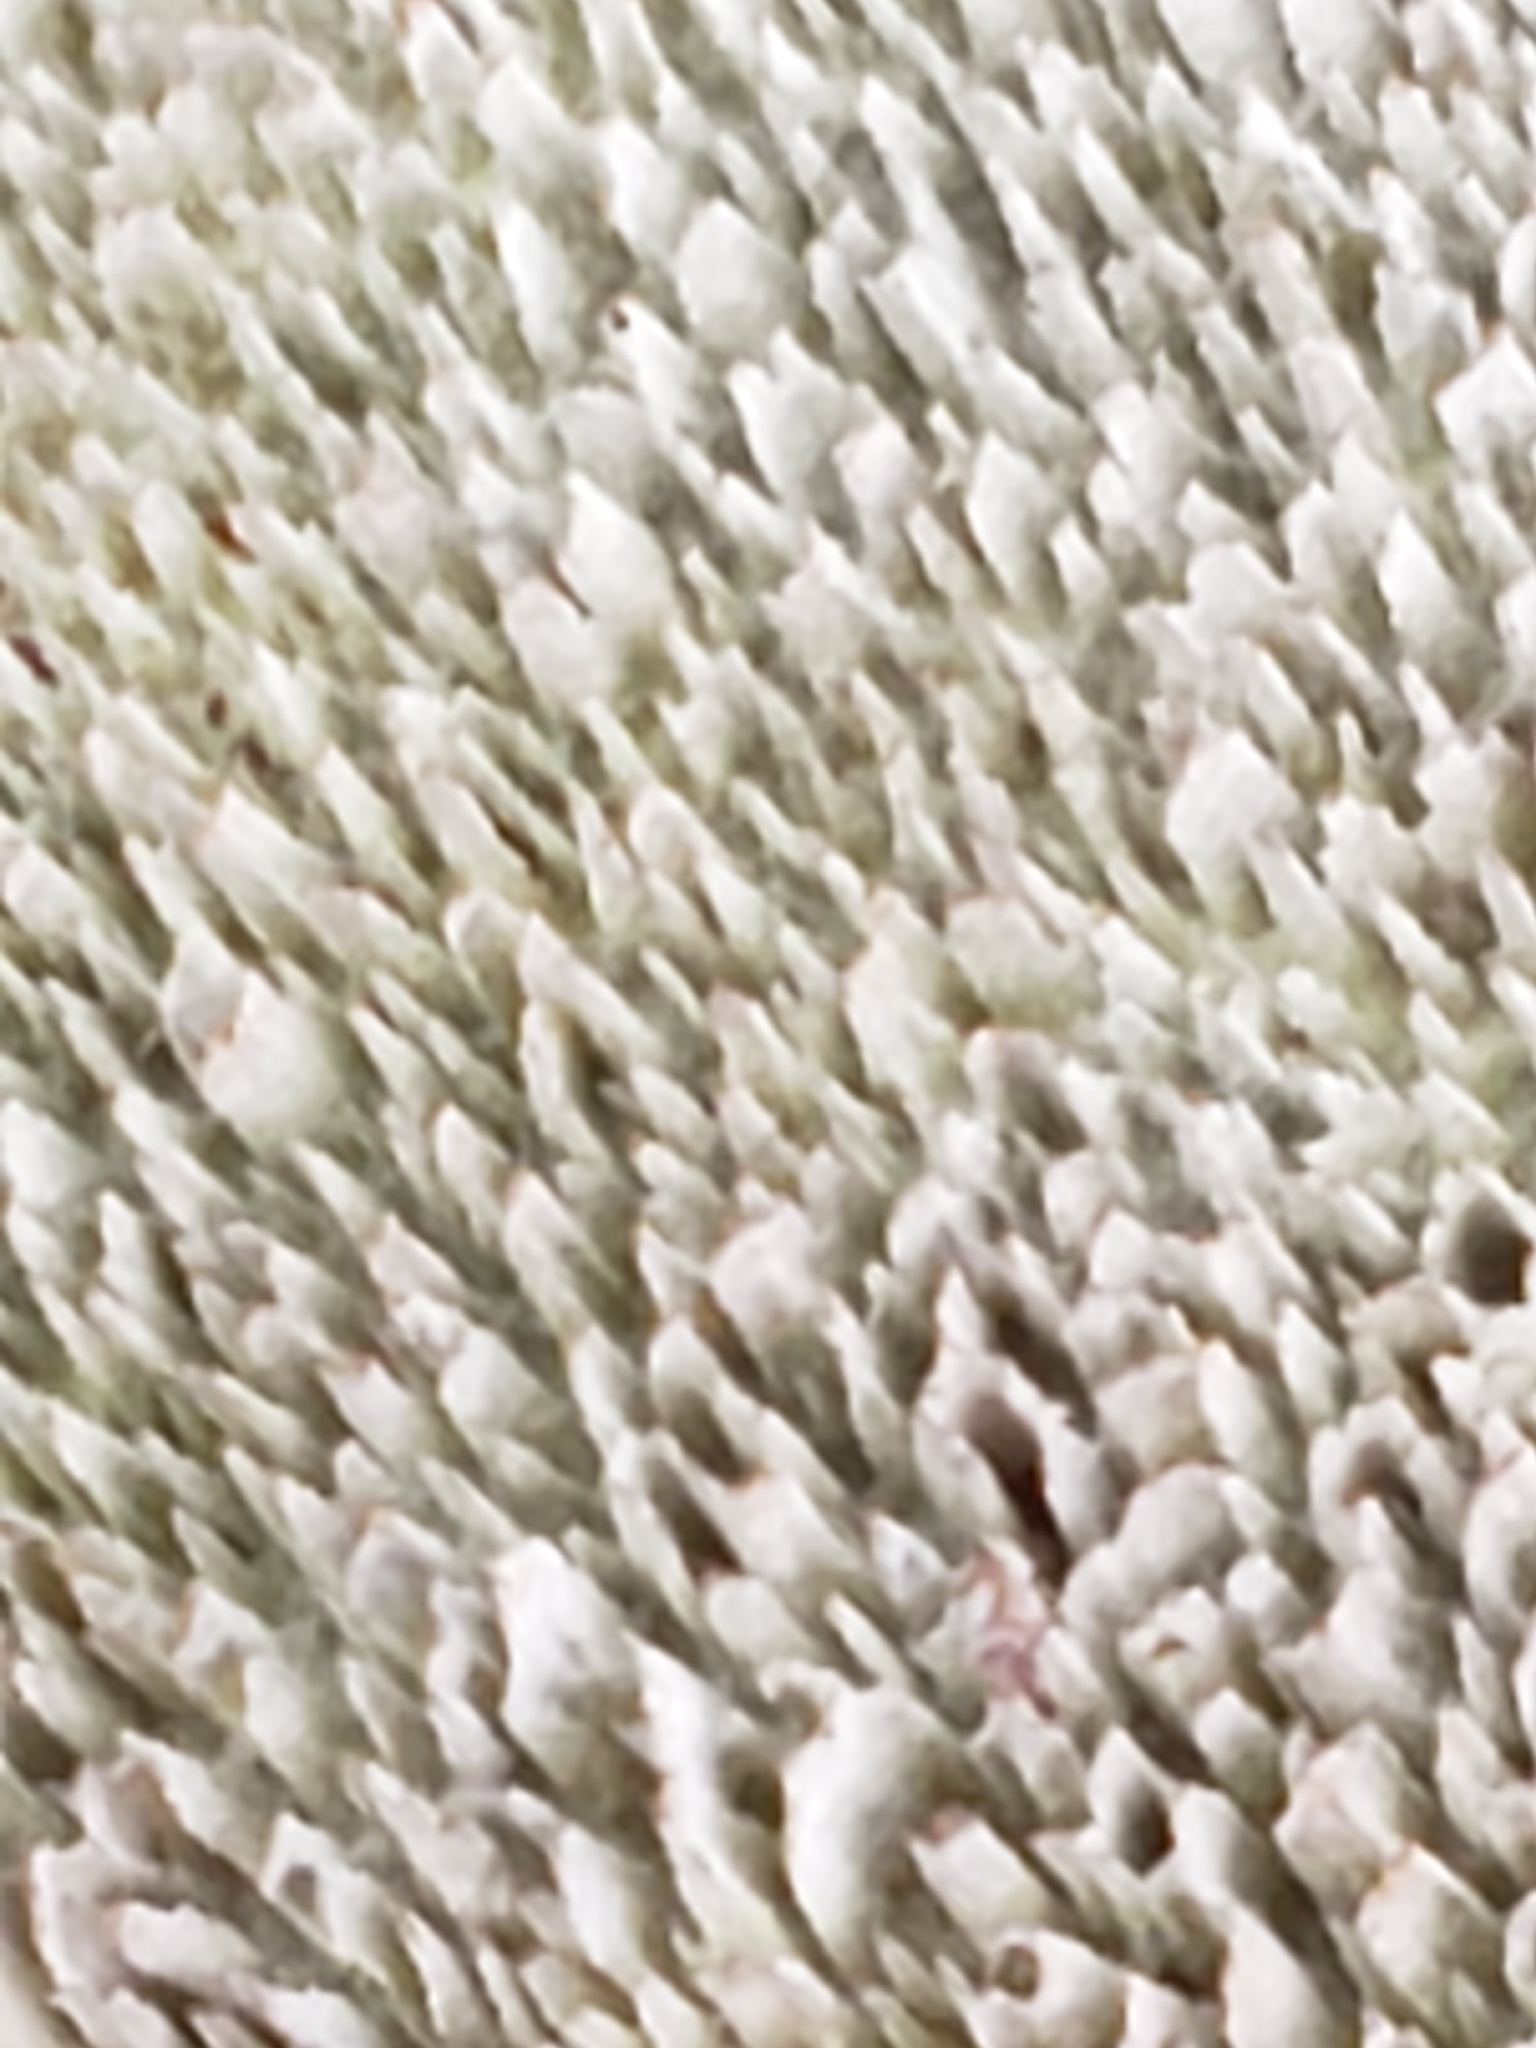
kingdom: Fungi
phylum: Basidiomycota
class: Agaricomycetes
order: Polyporales
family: Polyporaceae
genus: Dentocorticium
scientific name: Dentocorticium portoricense
